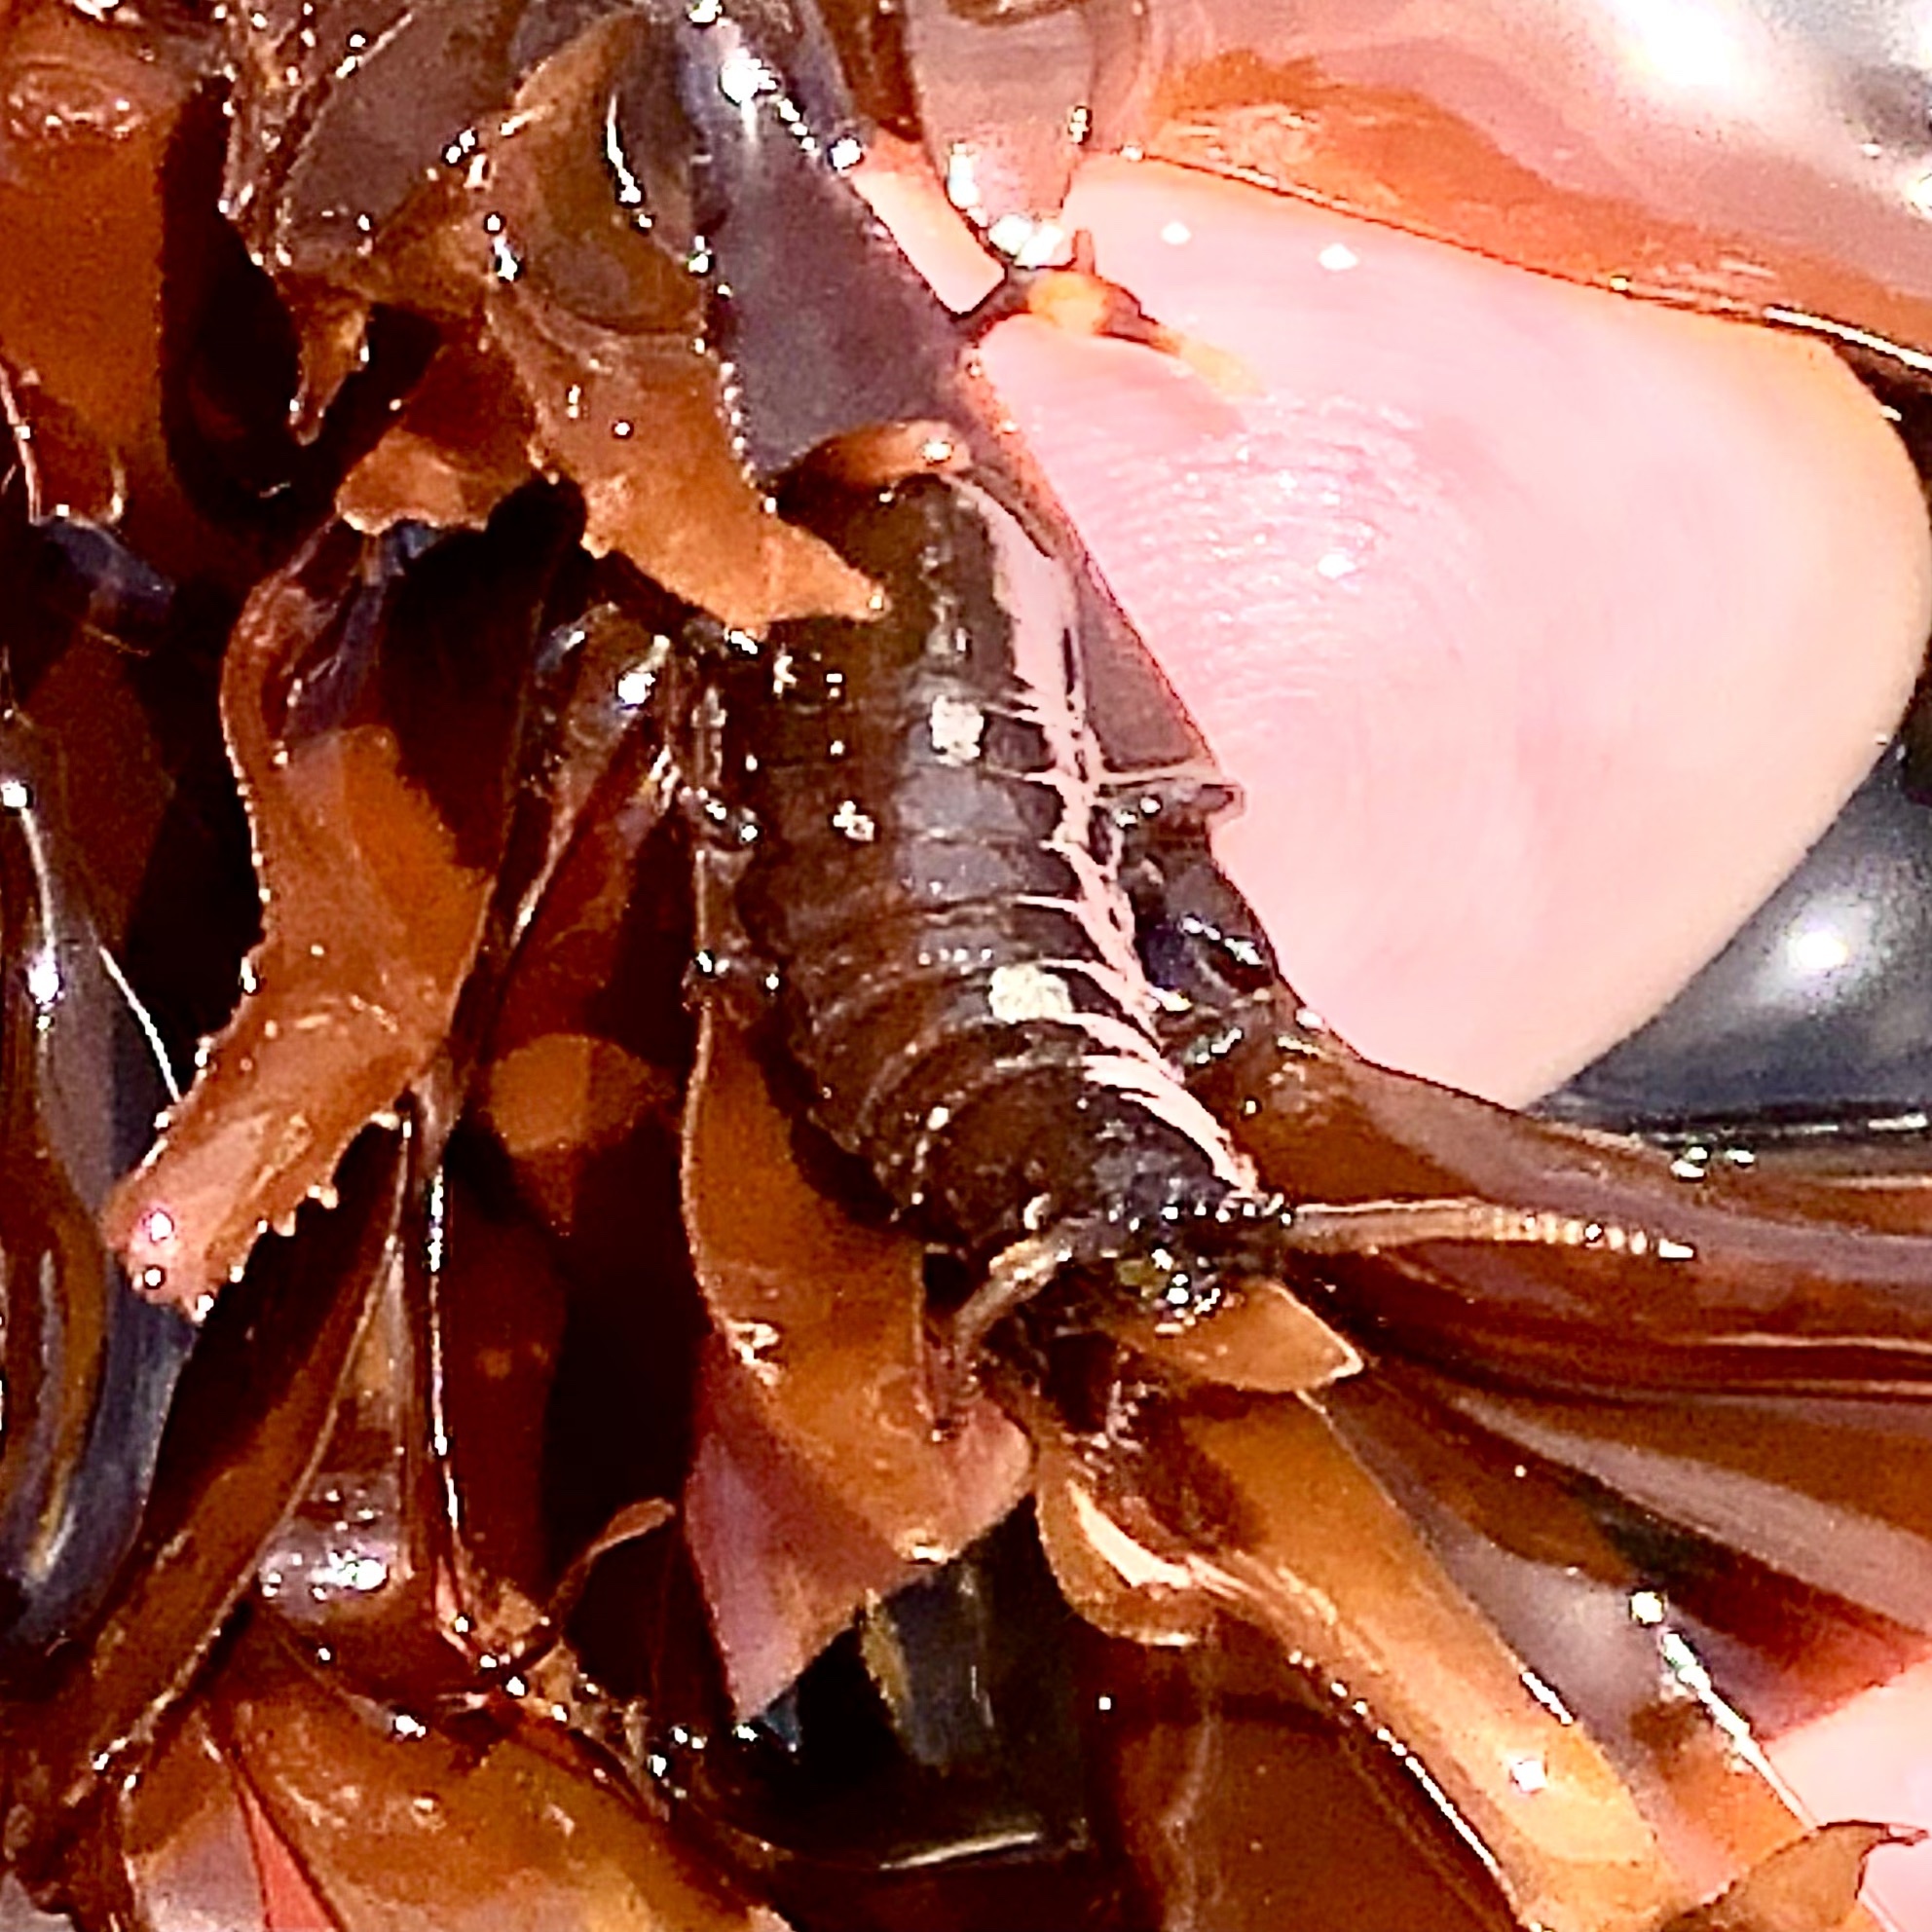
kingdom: Animalia
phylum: Arthropoda
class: Malacostraca
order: Isopoda
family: Idoteidae
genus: Pentidotea
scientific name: Pentidotea wosnesenskii
